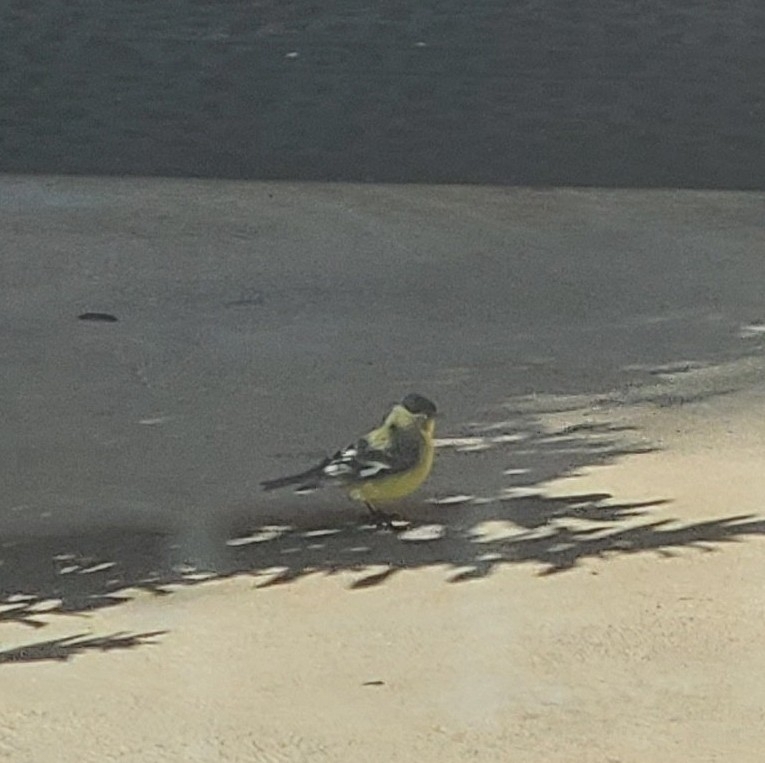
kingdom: Animalia
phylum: Chordata
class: Aves
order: Passeriformes
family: Fringillidae
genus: Spinus
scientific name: Spinus psaltria
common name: Lesser goldfinch
